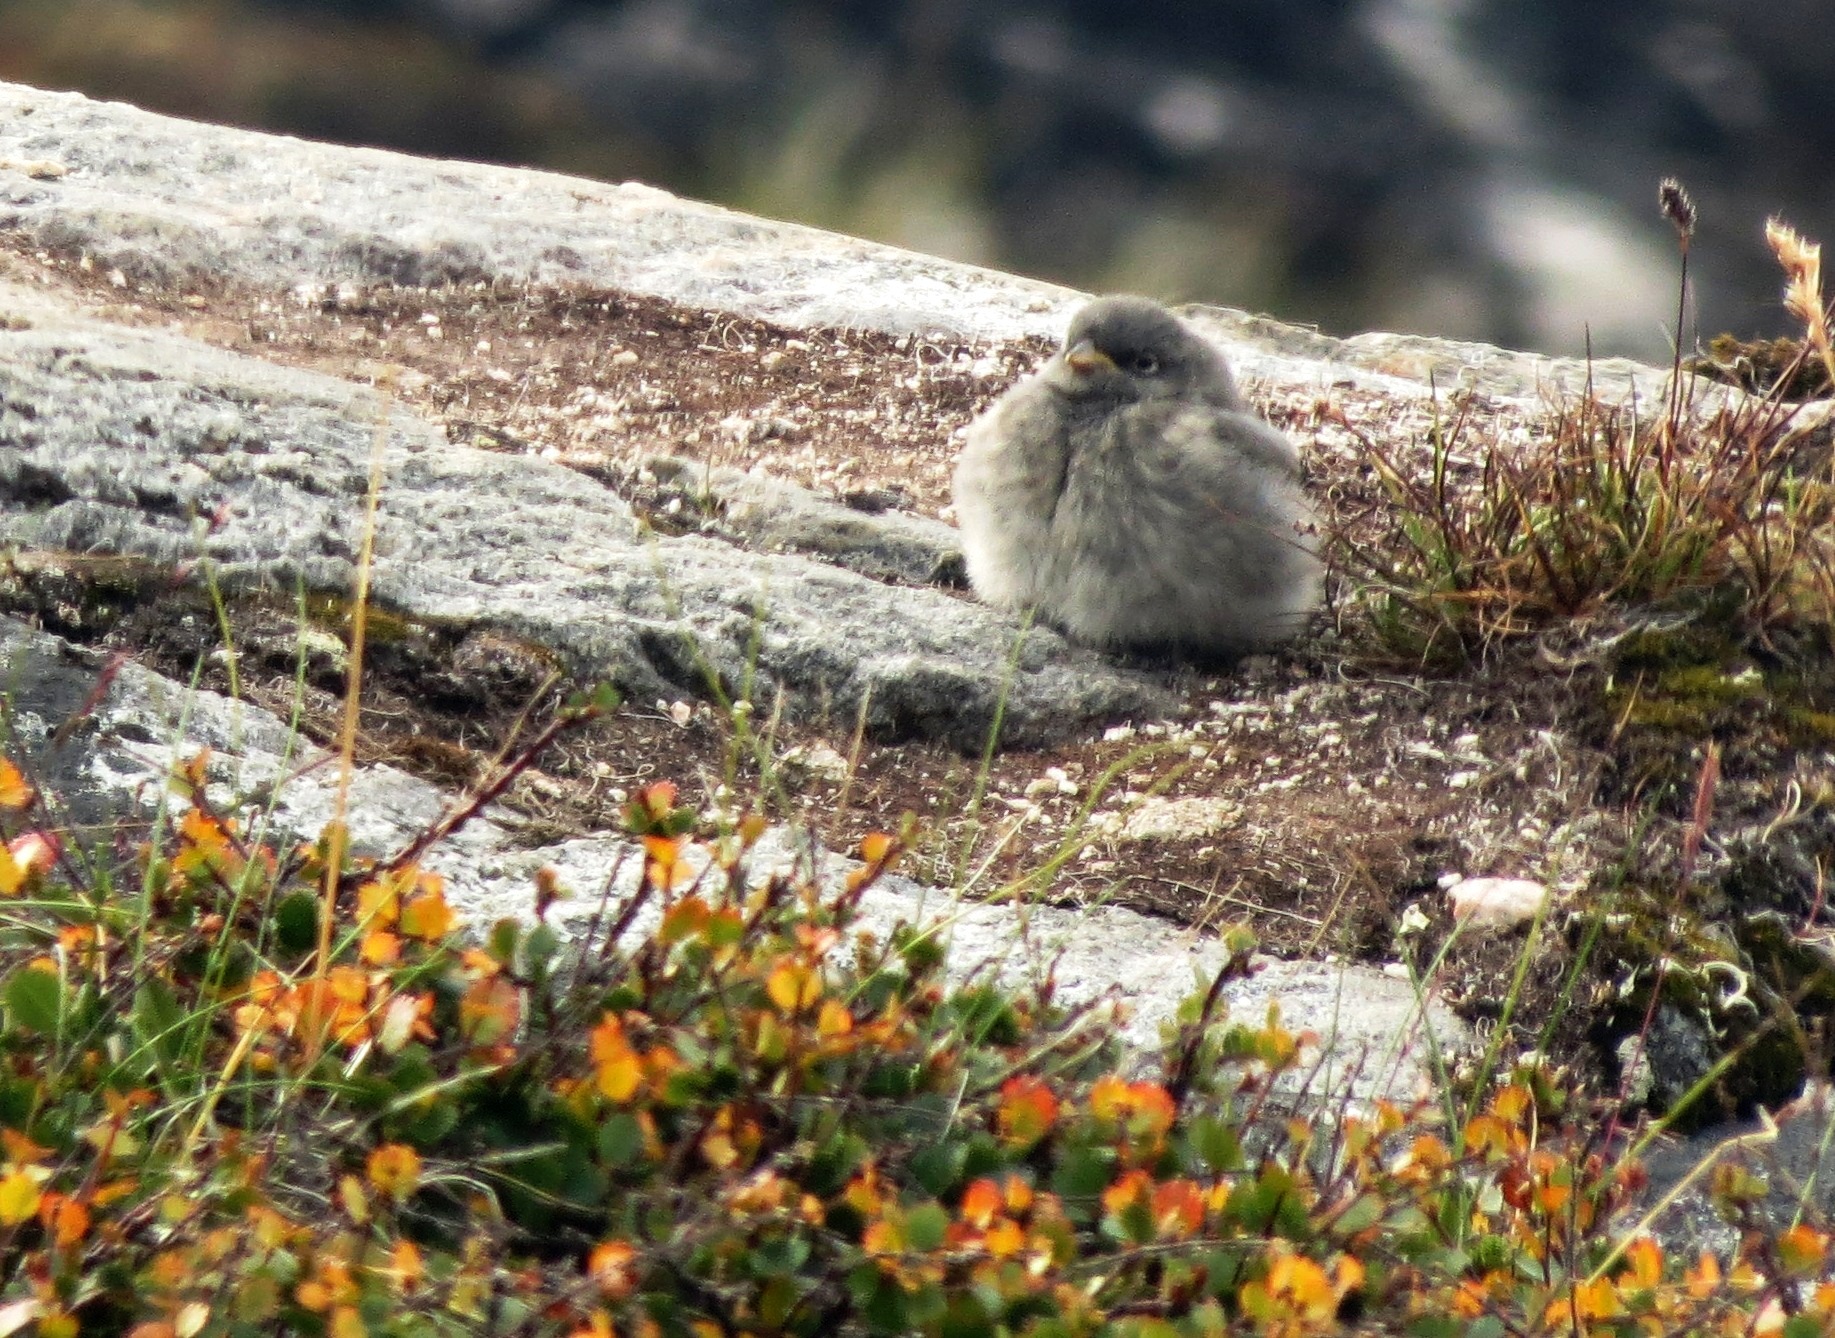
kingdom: Animalia
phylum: Chordata
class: Aves
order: Passeriformes
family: Calcariidae
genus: Plectrophenax
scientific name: Plectrophenax nivalis
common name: Snow bunting
